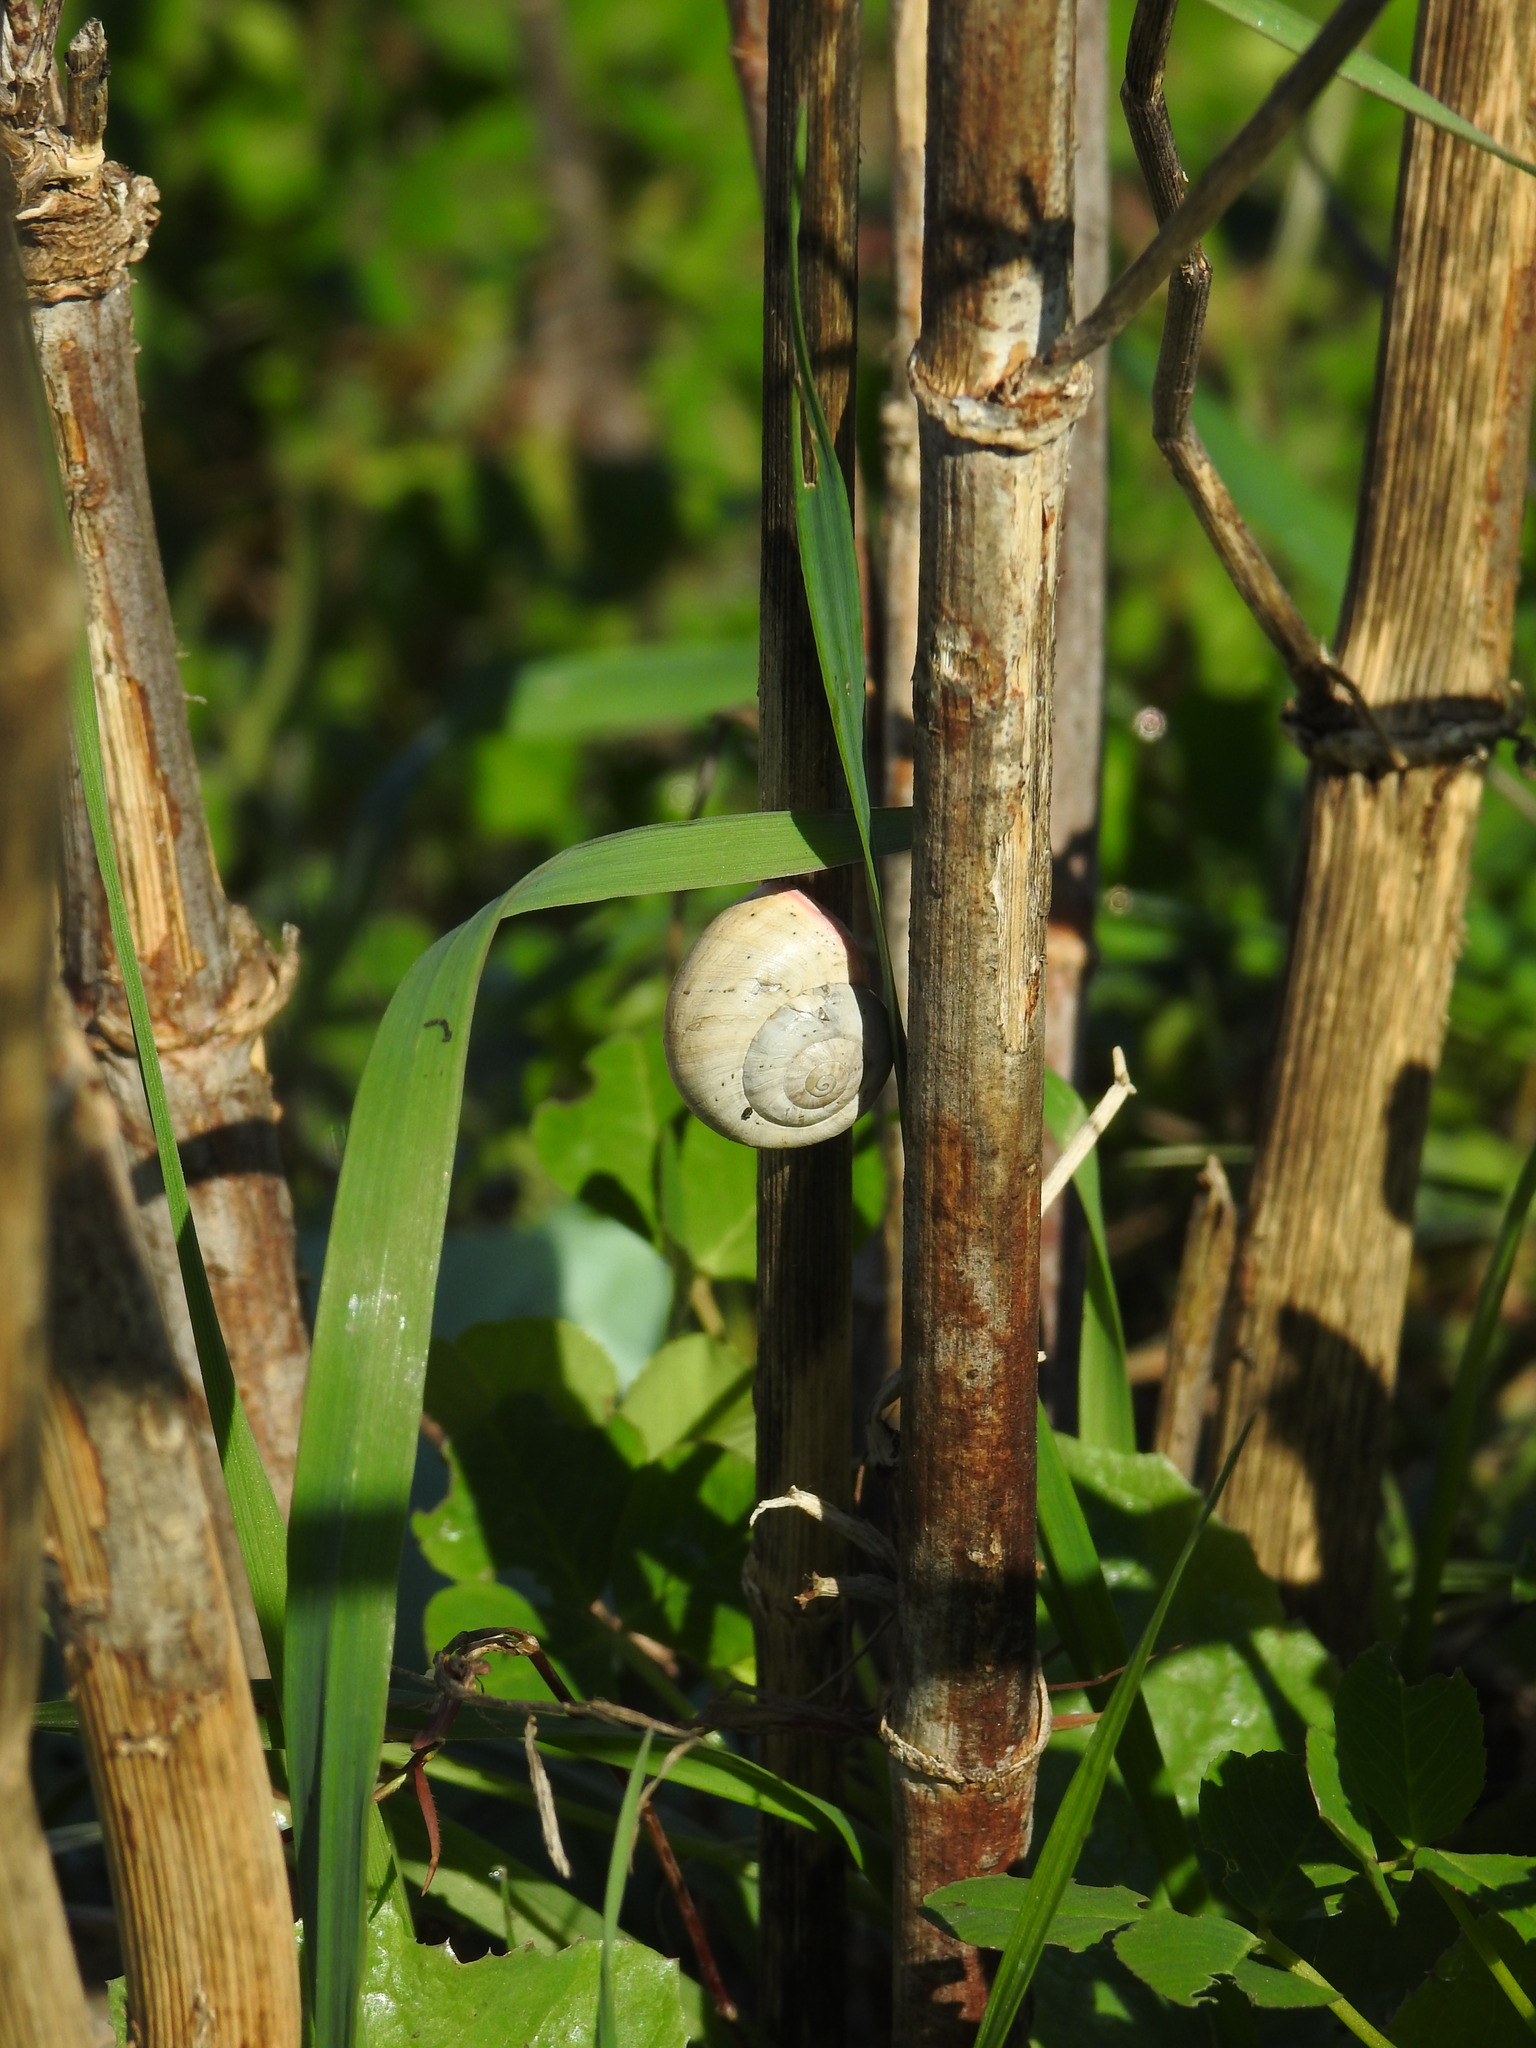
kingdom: Animalia
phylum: Mollusca
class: Gastropoda
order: Stylommatophora
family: Helicidae
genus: Theba
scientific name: Theba pisana
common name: White snail
